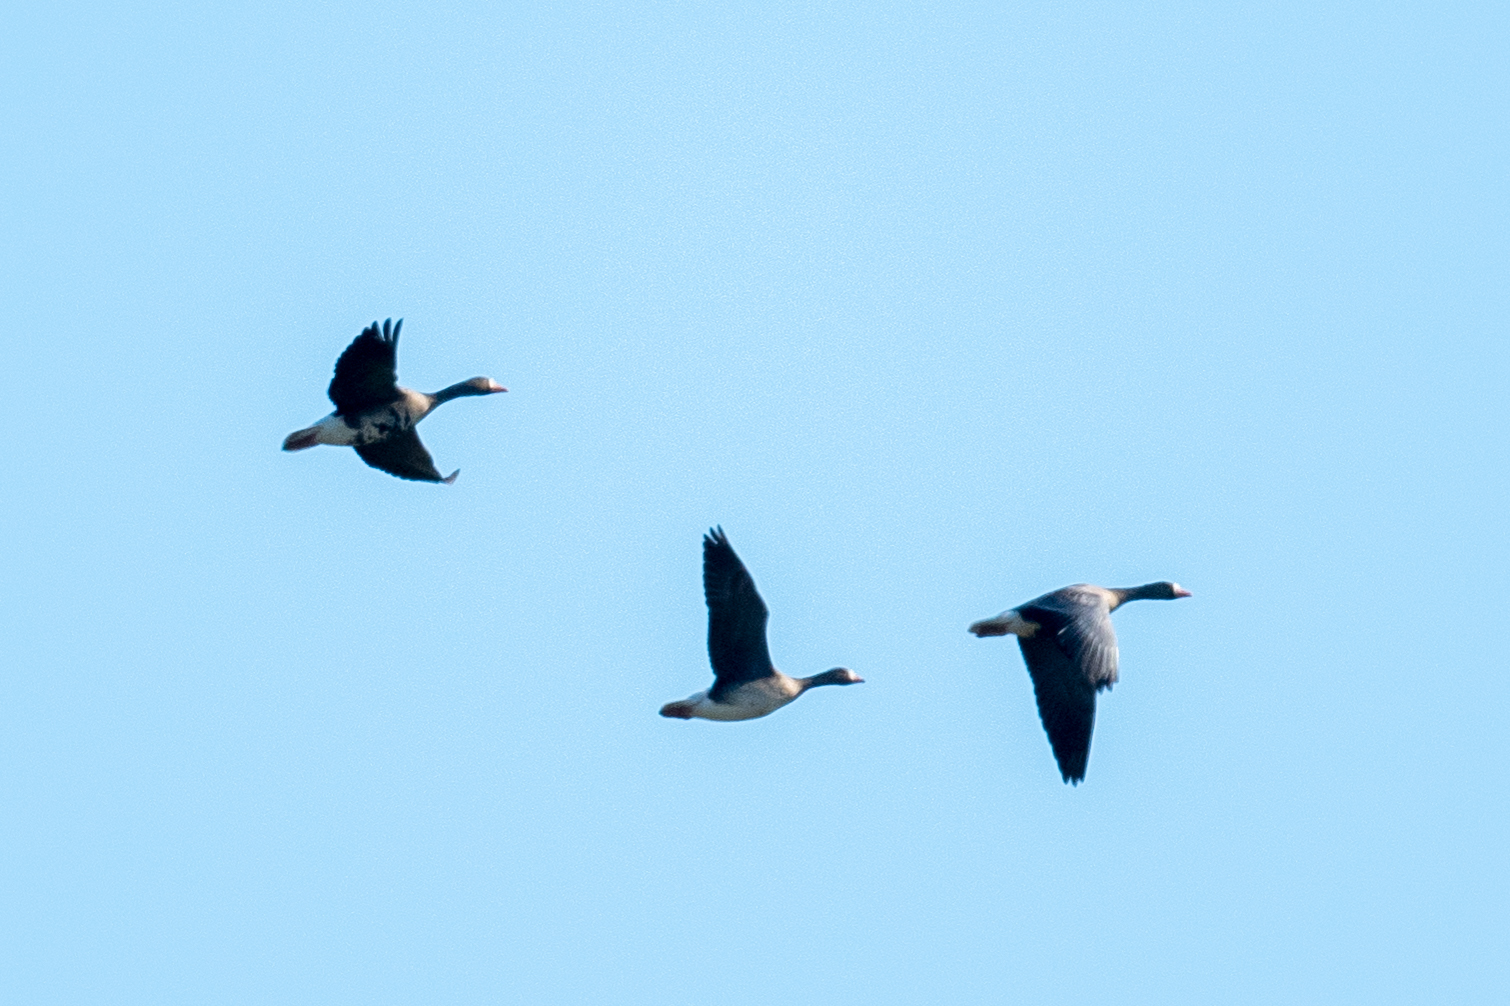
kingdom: Animalia
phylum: Chordata
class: Aves
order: Anseriformes
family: Anatidae
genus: Anser
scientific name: Anser albifrons
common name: Greater white-fronted goose
